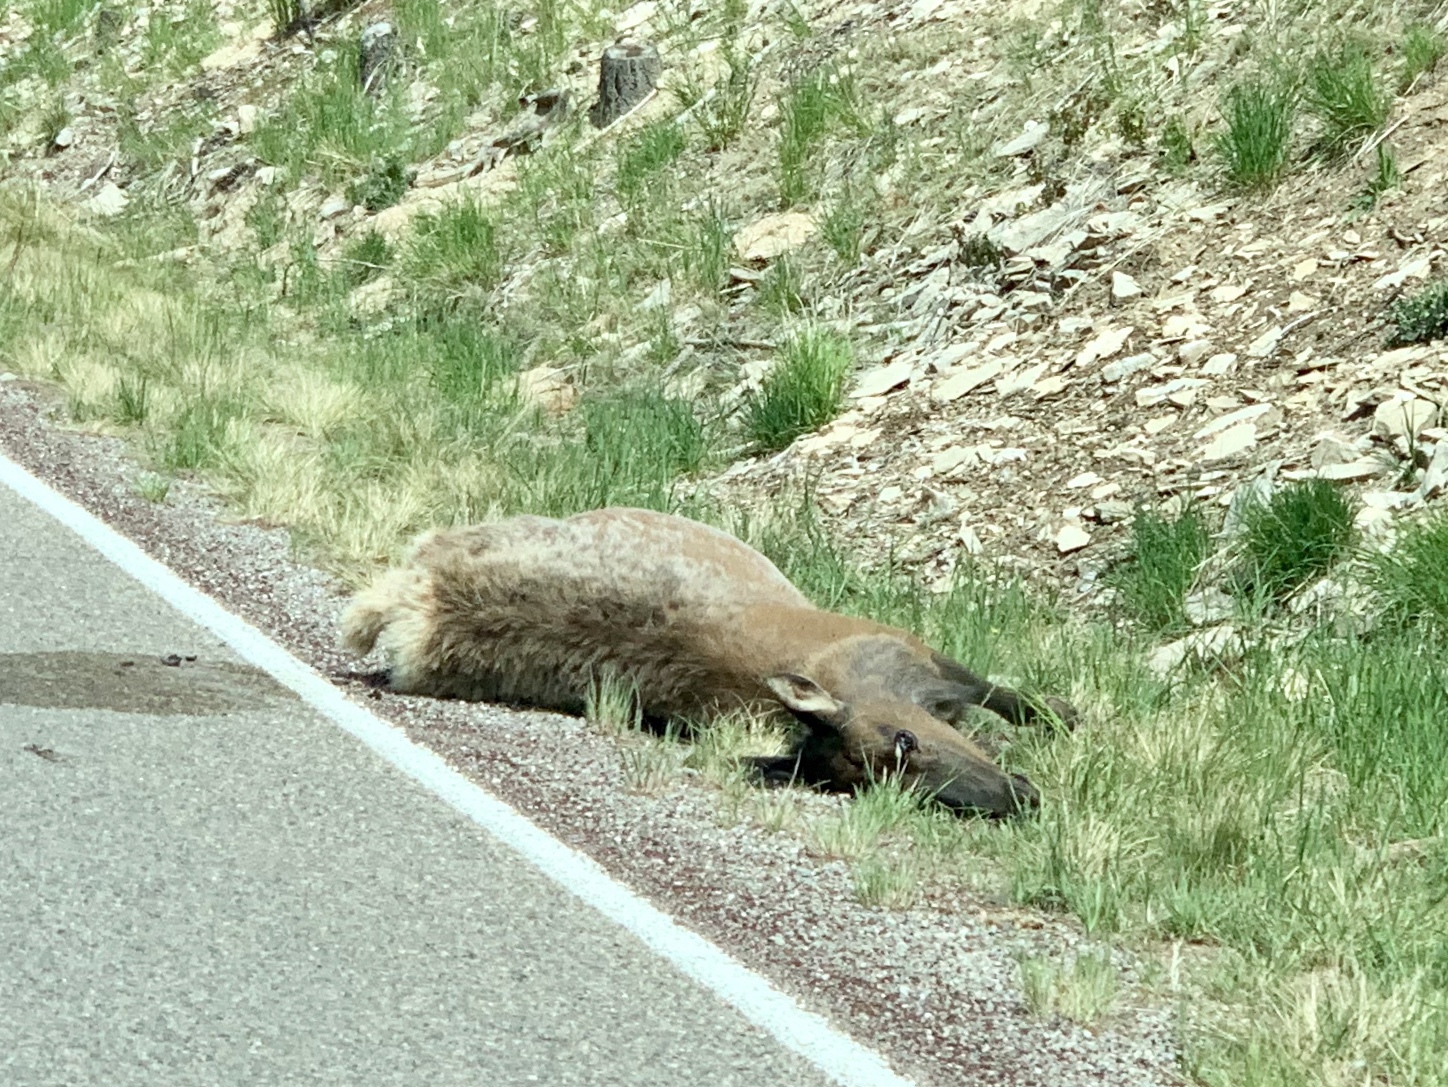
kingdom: Animalia
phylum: Chordata
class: Mammalia
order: Artiodactyla
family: Cervidae
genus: Cervus
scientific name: Cervus elaphus
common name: Red deer
